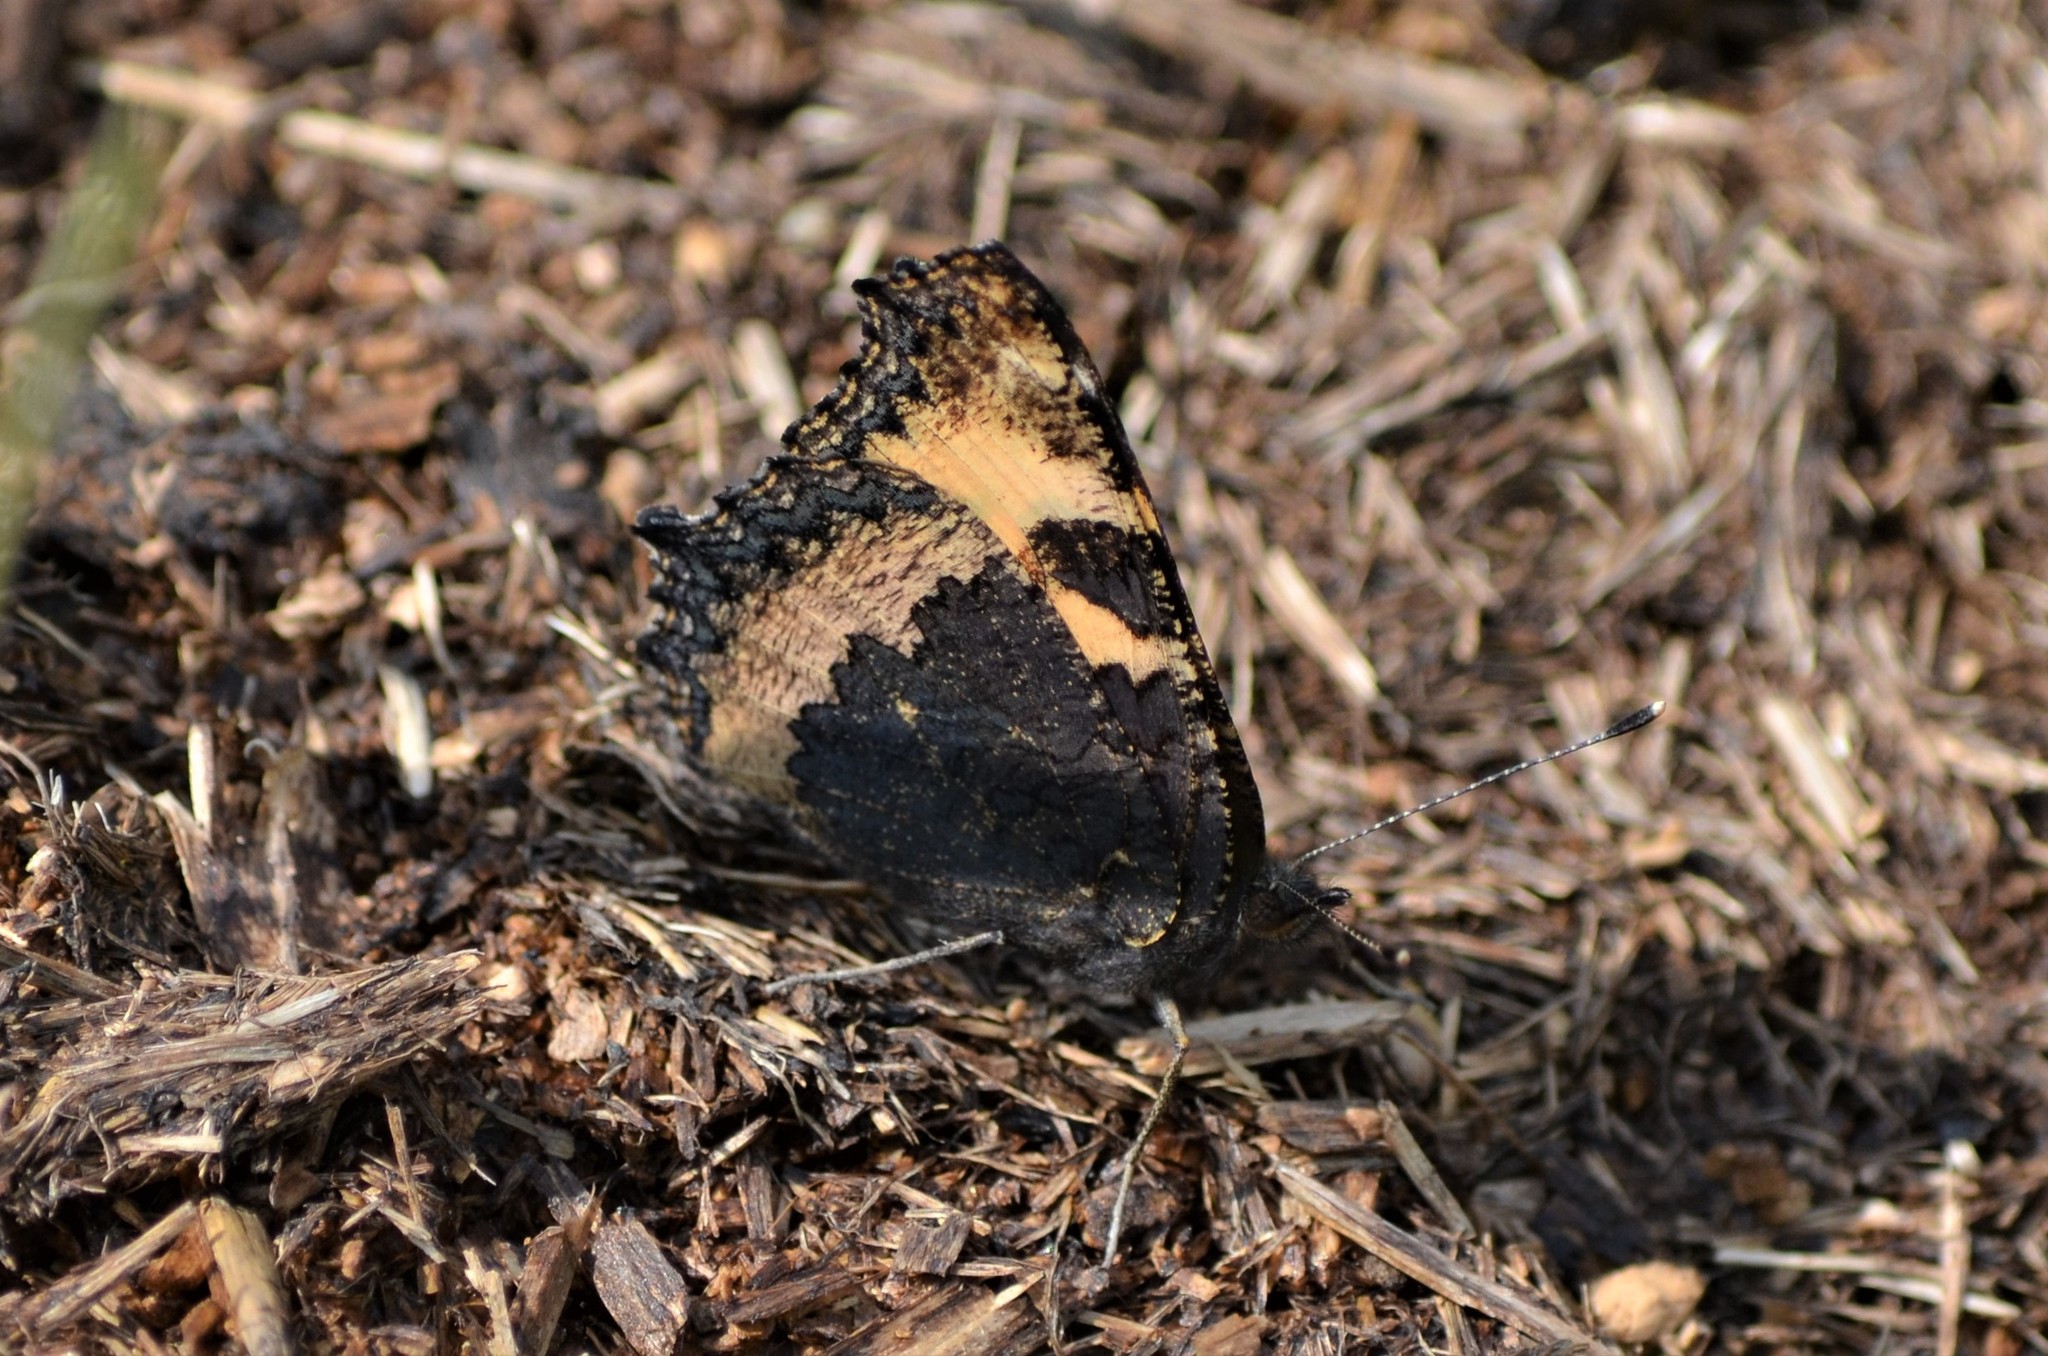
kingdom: Animalia
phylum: Arthropoda
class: Insecta
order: Lepidoptera
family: Nymphalidae
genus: Aglais
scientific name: Aglais urticae
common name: Small tortoiseshell
